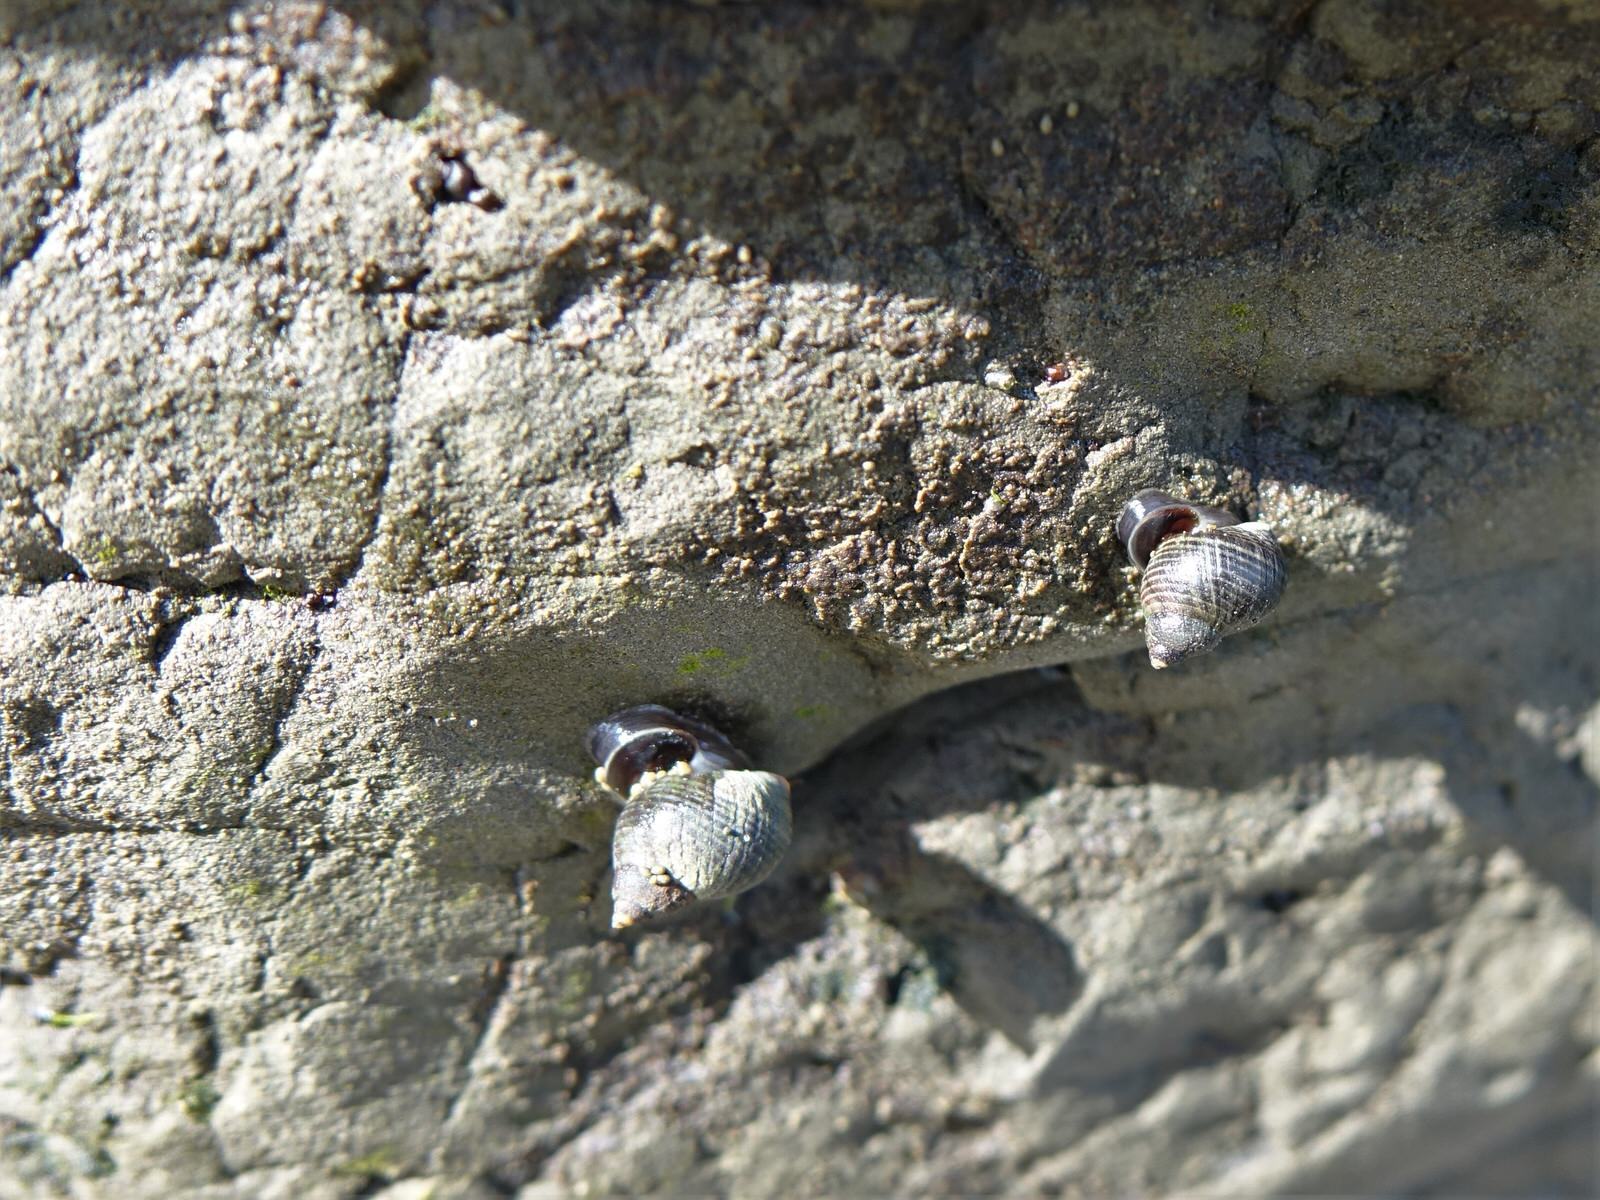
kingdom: Animalia
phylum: Mollusca
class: Gastropoda
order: Littorinimorpha
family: Littorinidae
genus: Austrolittorina
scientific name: Austrolittorina cincta
